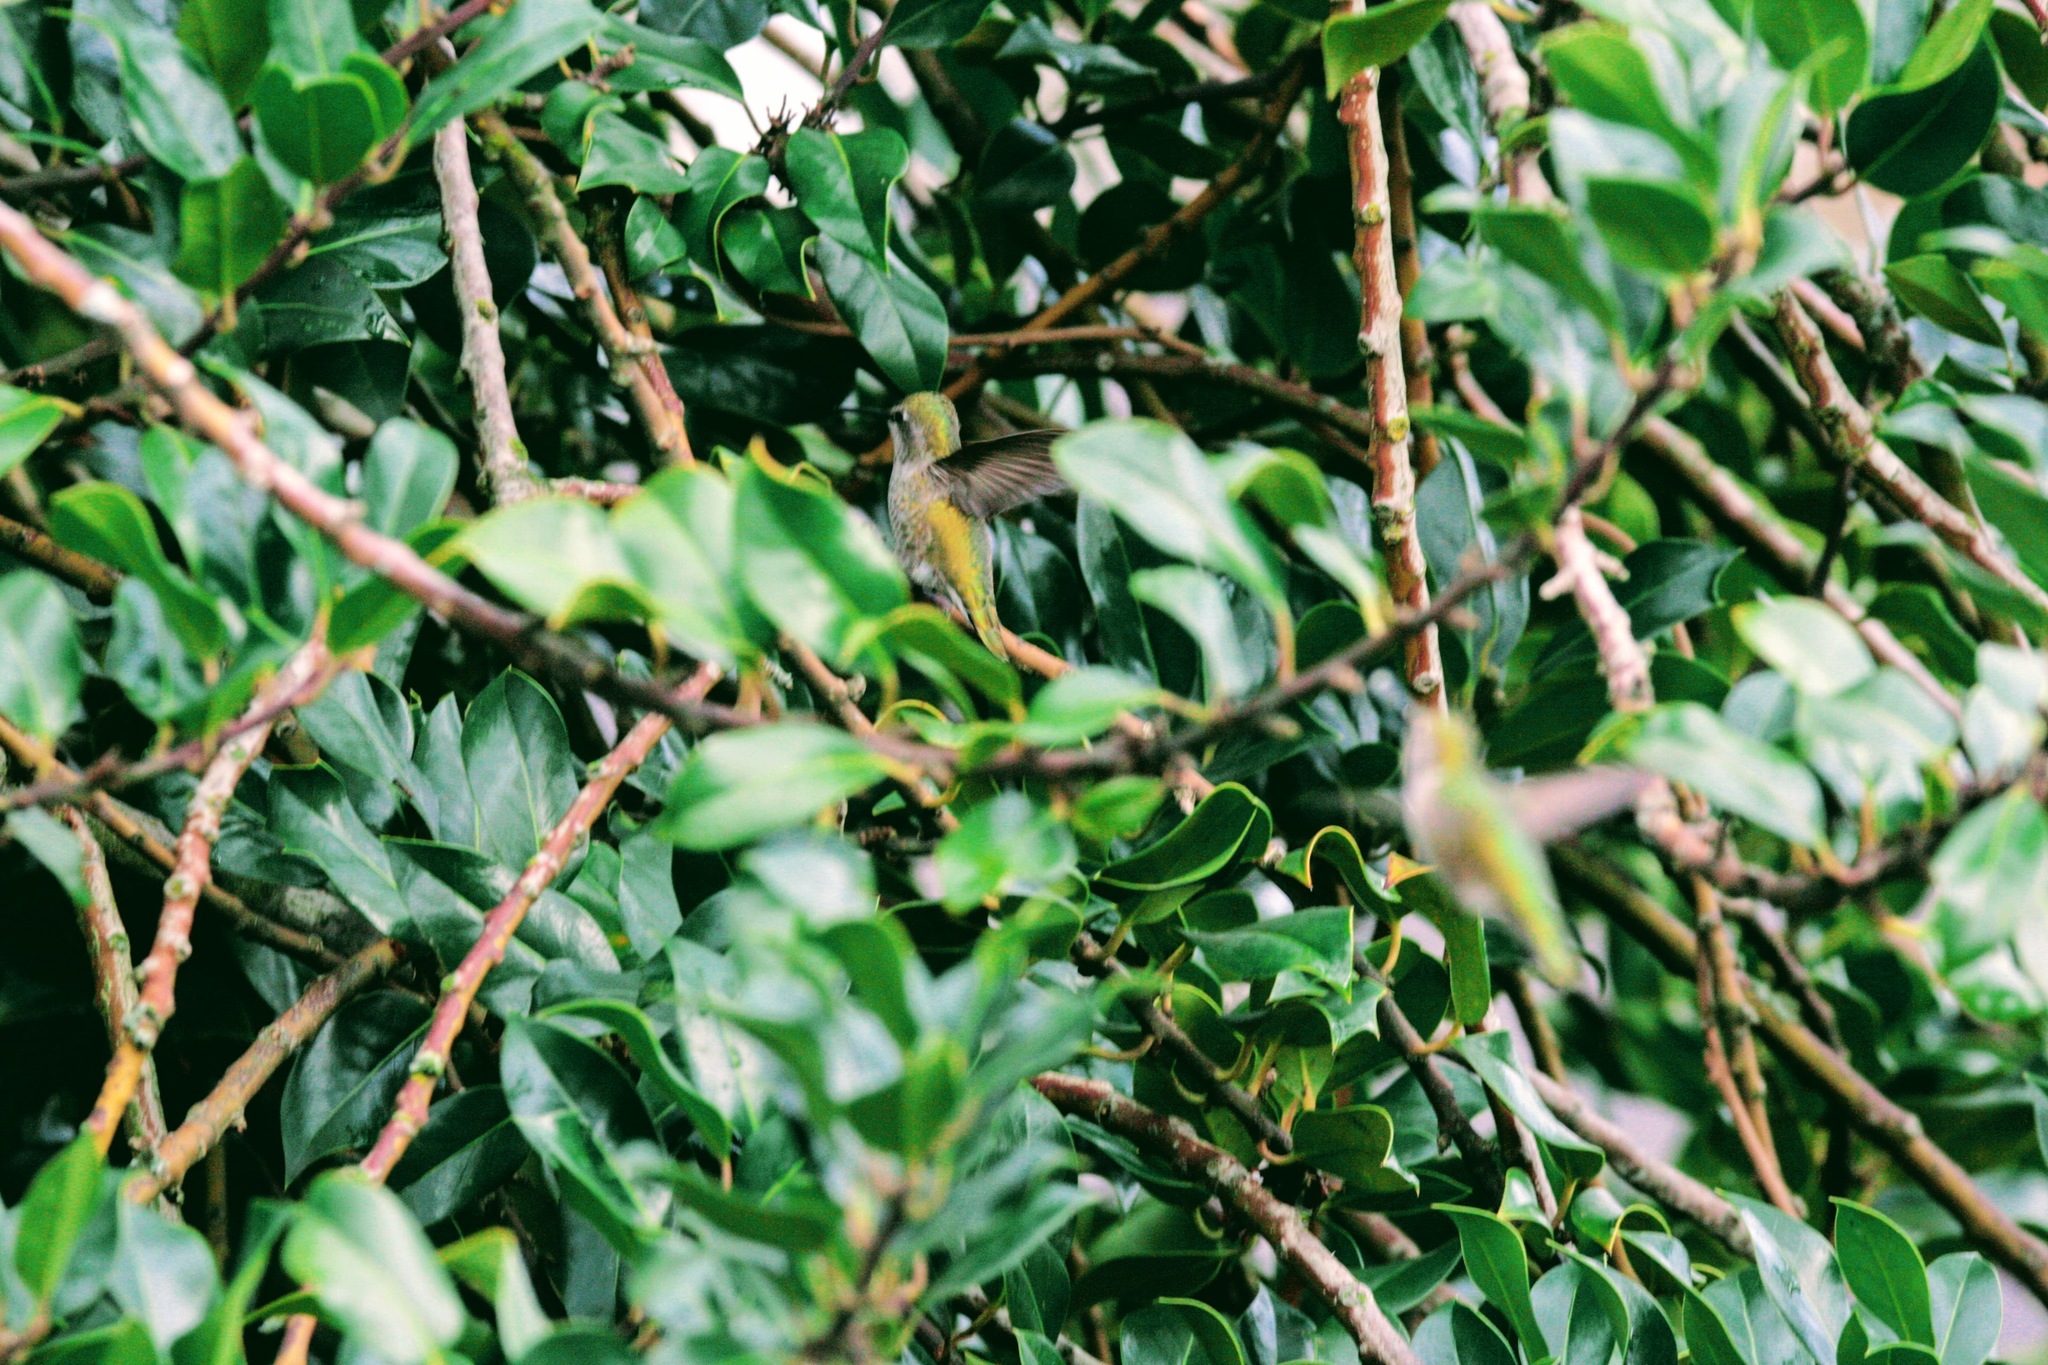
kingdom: Animalia
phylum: Chordata
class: Aves
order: Apodiformes
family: Trochilidae
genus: Calypte
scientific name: Calypte anna
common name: Anna's hummingbird
